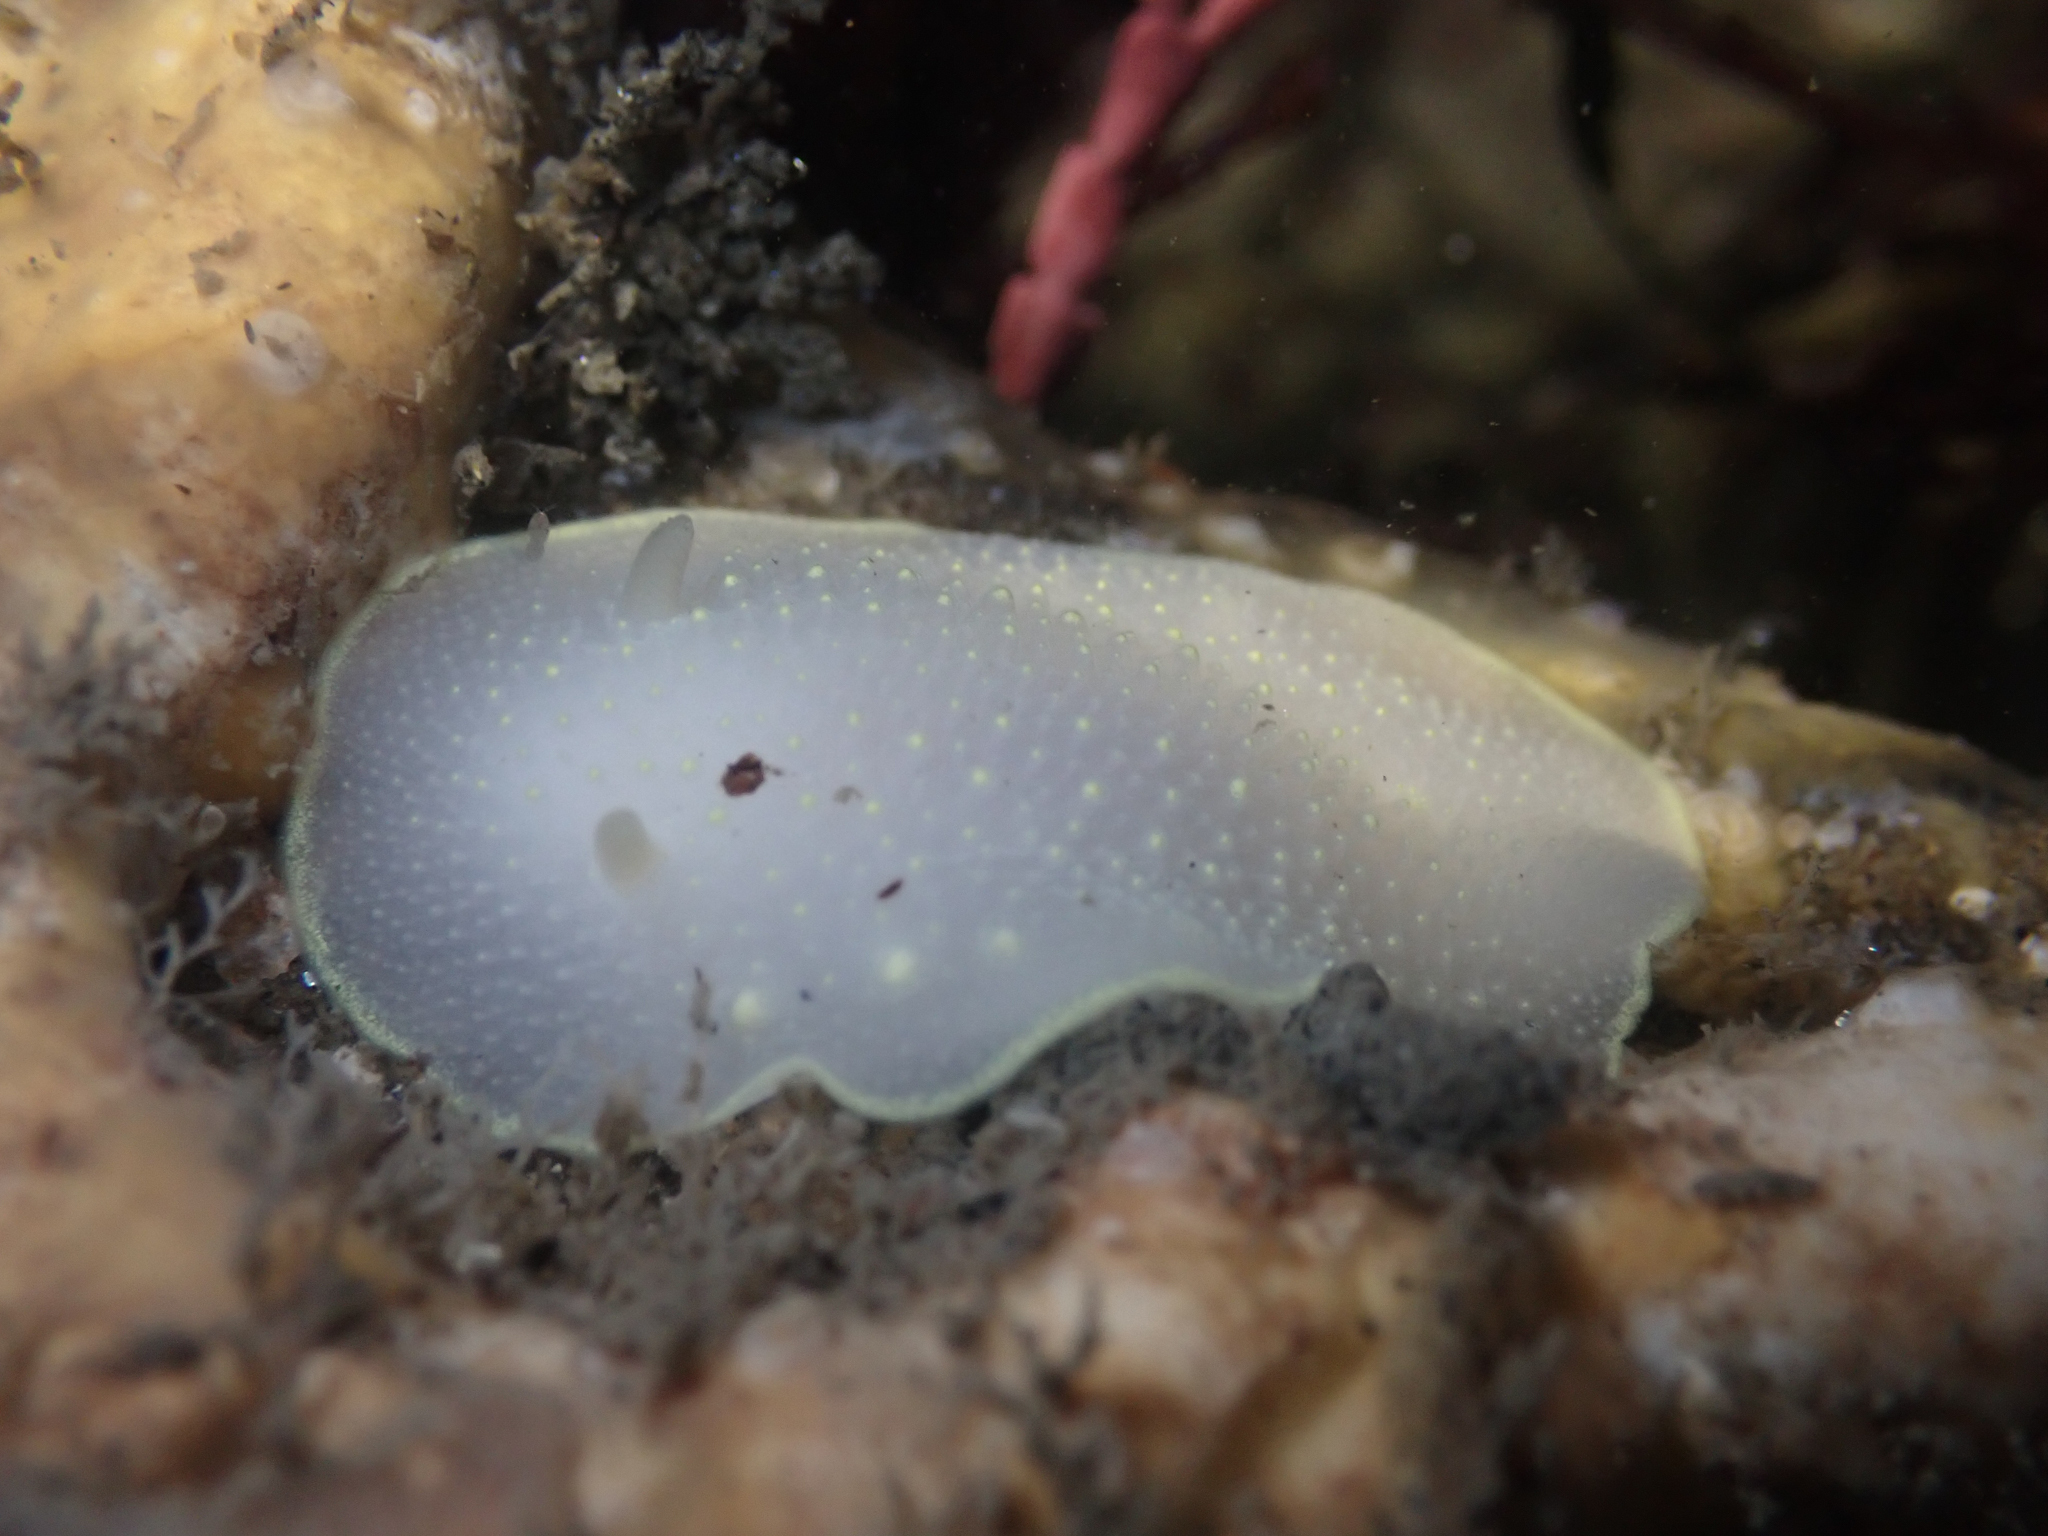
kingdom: Animalia
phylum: Mollusca
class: Gastropoda
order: Nudibranchia
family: Cadlinidae
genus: Cadlina
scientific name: Cadlina sylviaearleae
